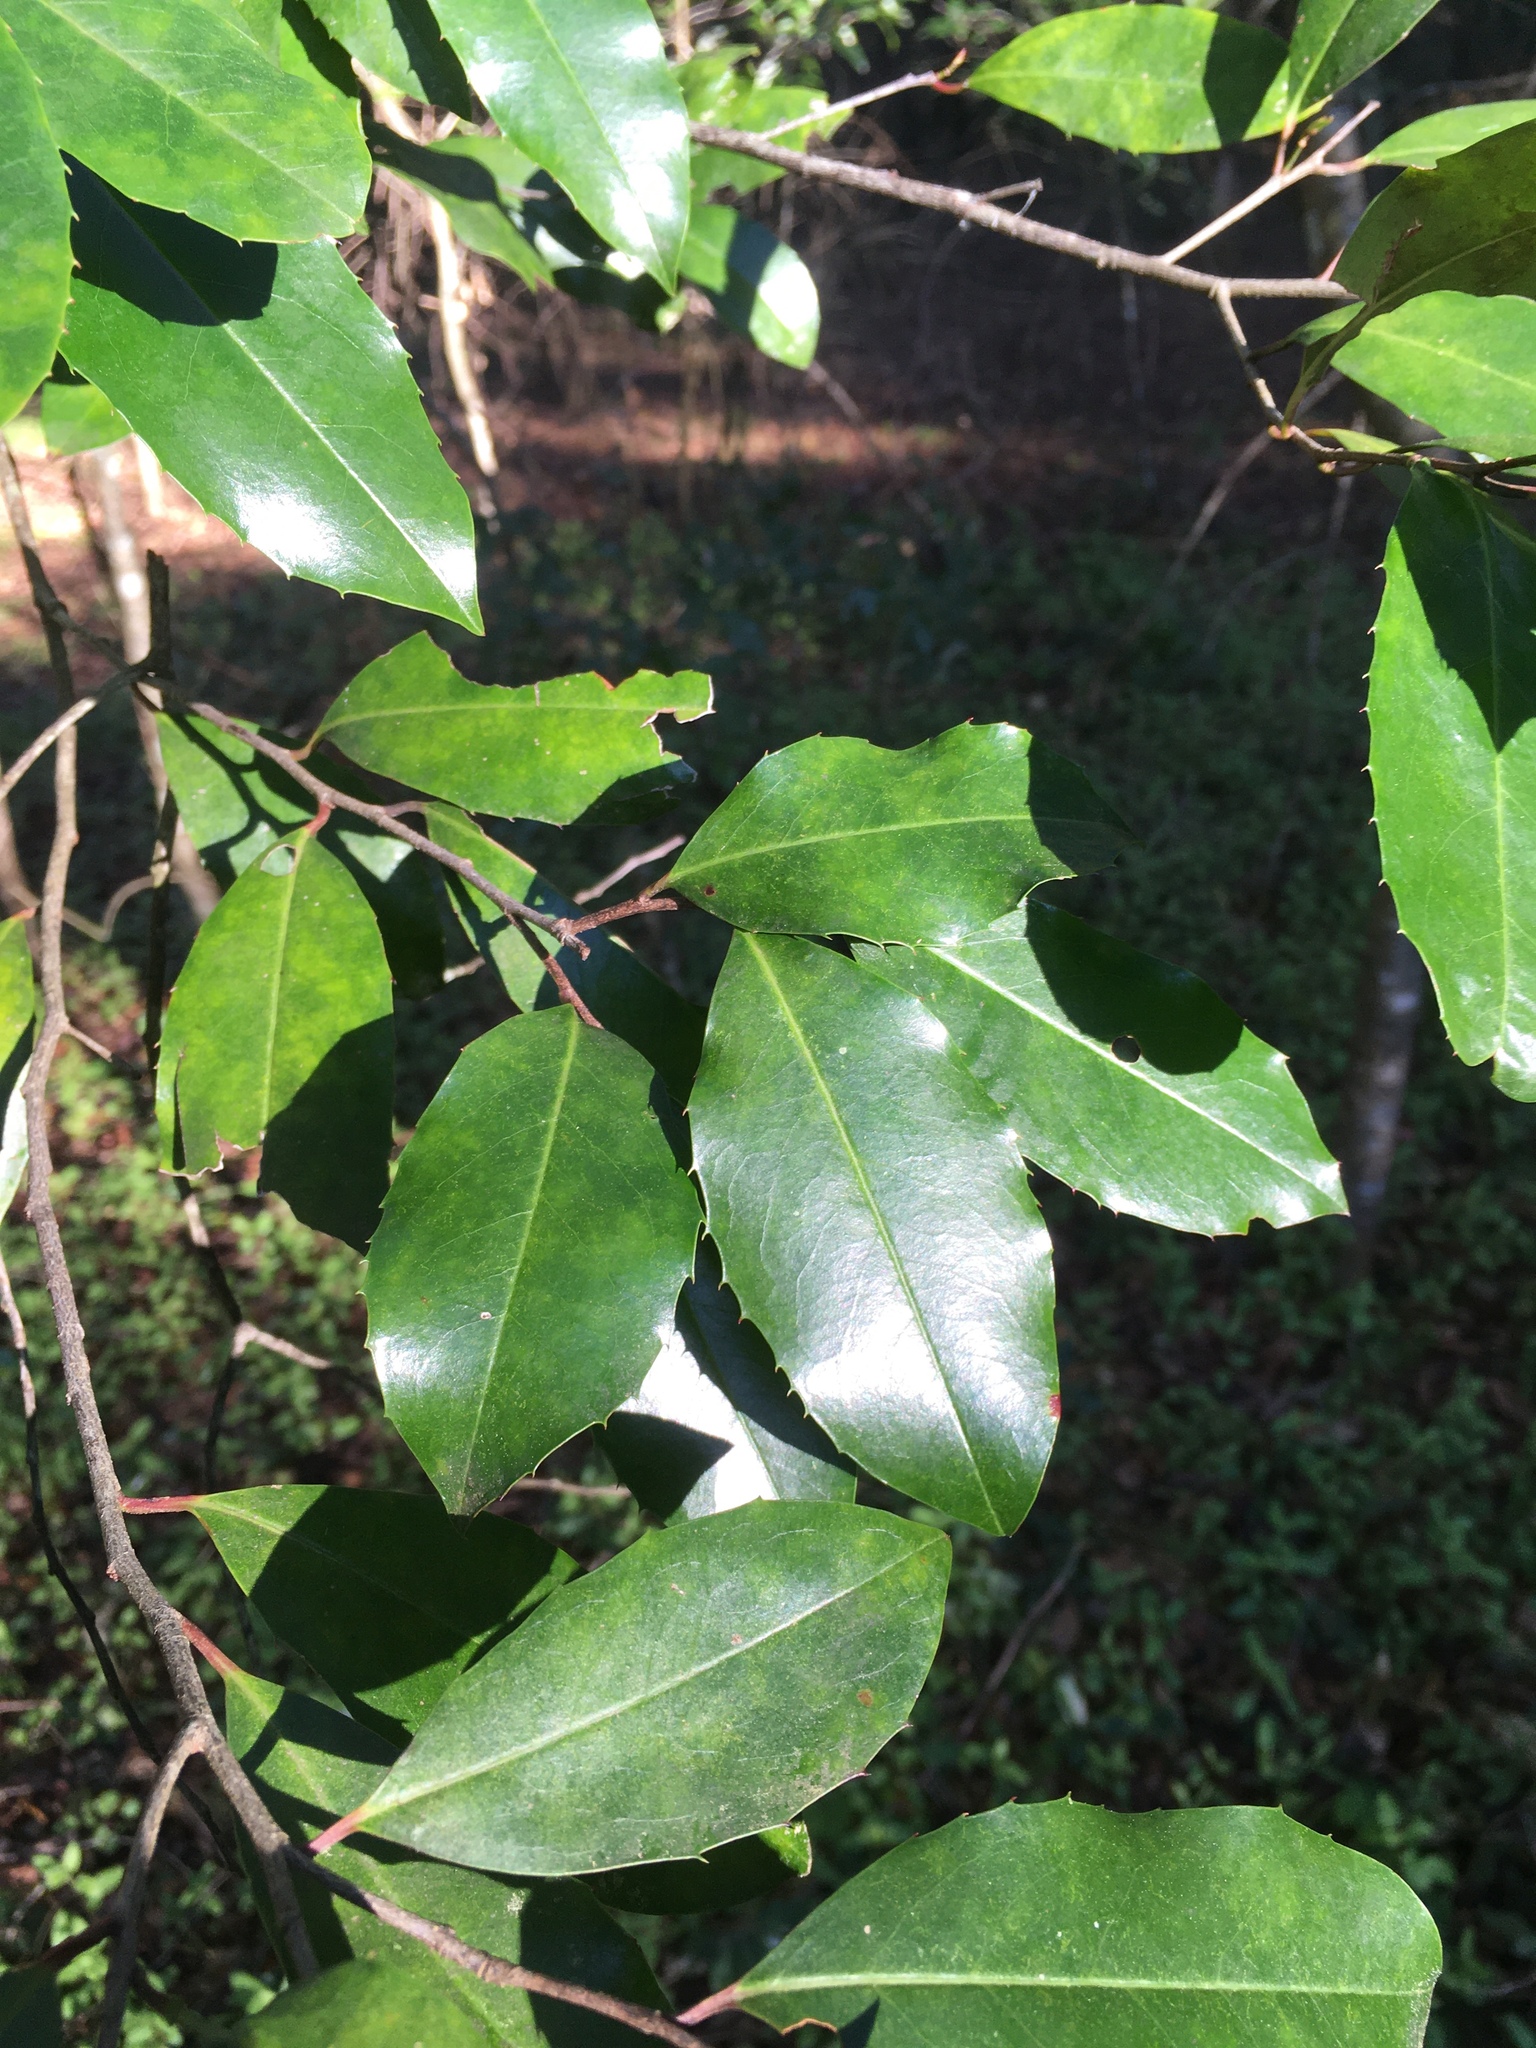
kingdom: Plantae
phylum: Tracheophyta
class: Magnoliopsida
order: Rosales
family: Rosaceae
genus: Prunus
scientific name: Prunus caroliniana
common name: Carolina laurel cherry
